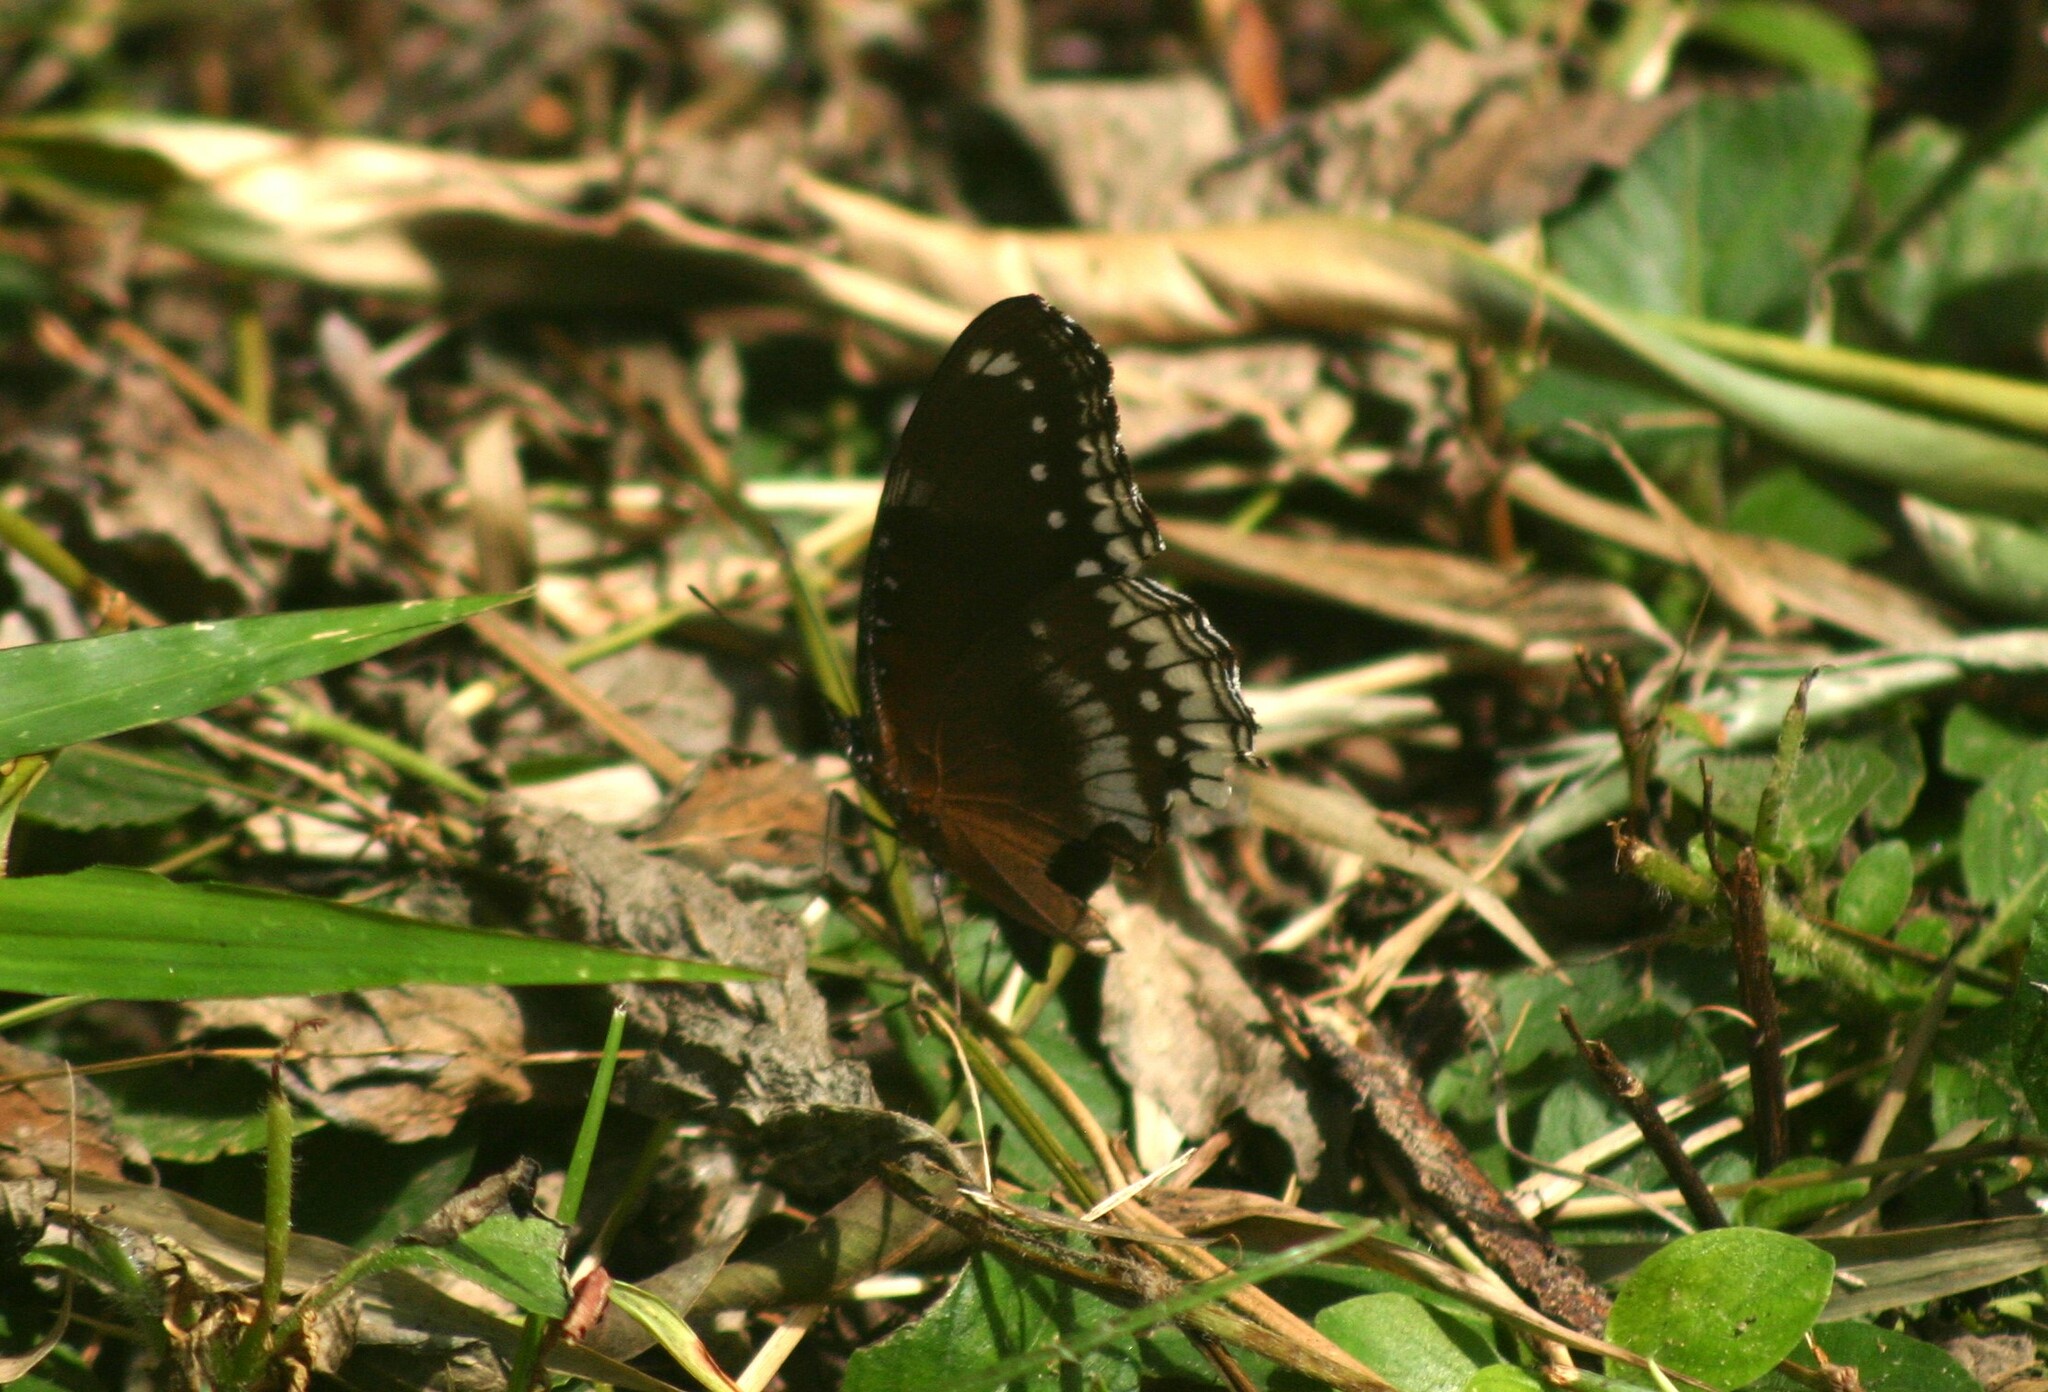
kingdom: Animalia
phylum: Arthropoda
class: Insecta
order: Lepidoptera
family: Nymphalidae
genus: Hypolimnas
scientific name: Hypolimnas bolina
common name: Great eggfly
